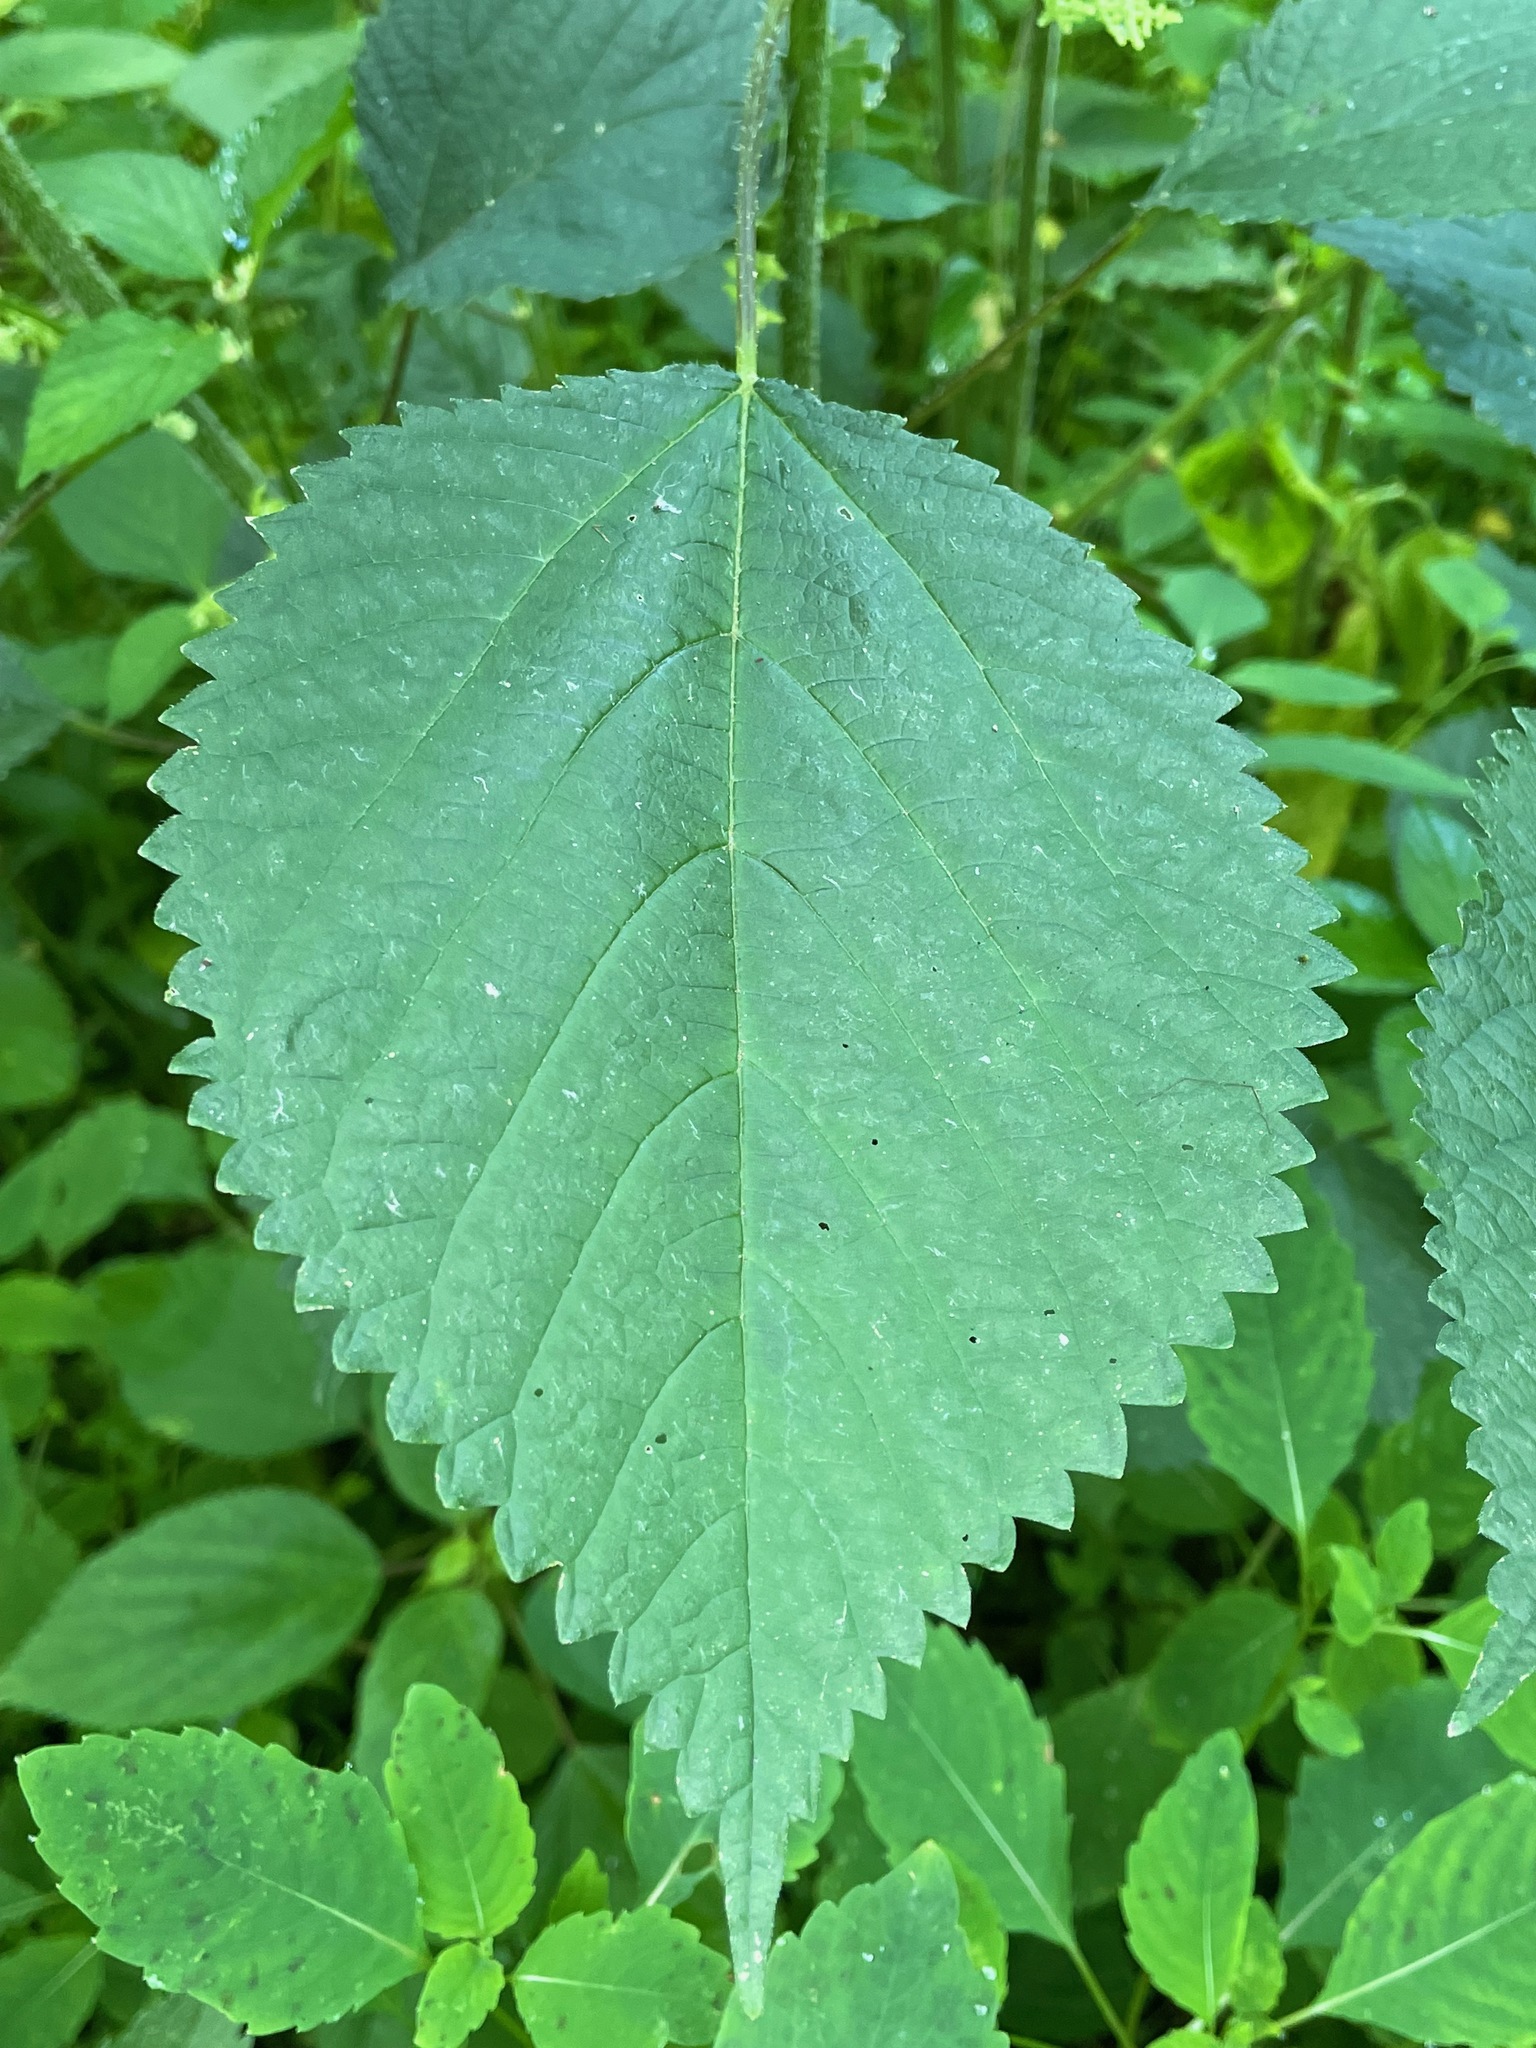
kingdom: Plantae
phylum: Tracheophyta
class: Magnoliopsida
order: Rosales
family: Urticaceae
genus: Laportea
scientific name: Laportea canadensis
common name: Canada nettle
